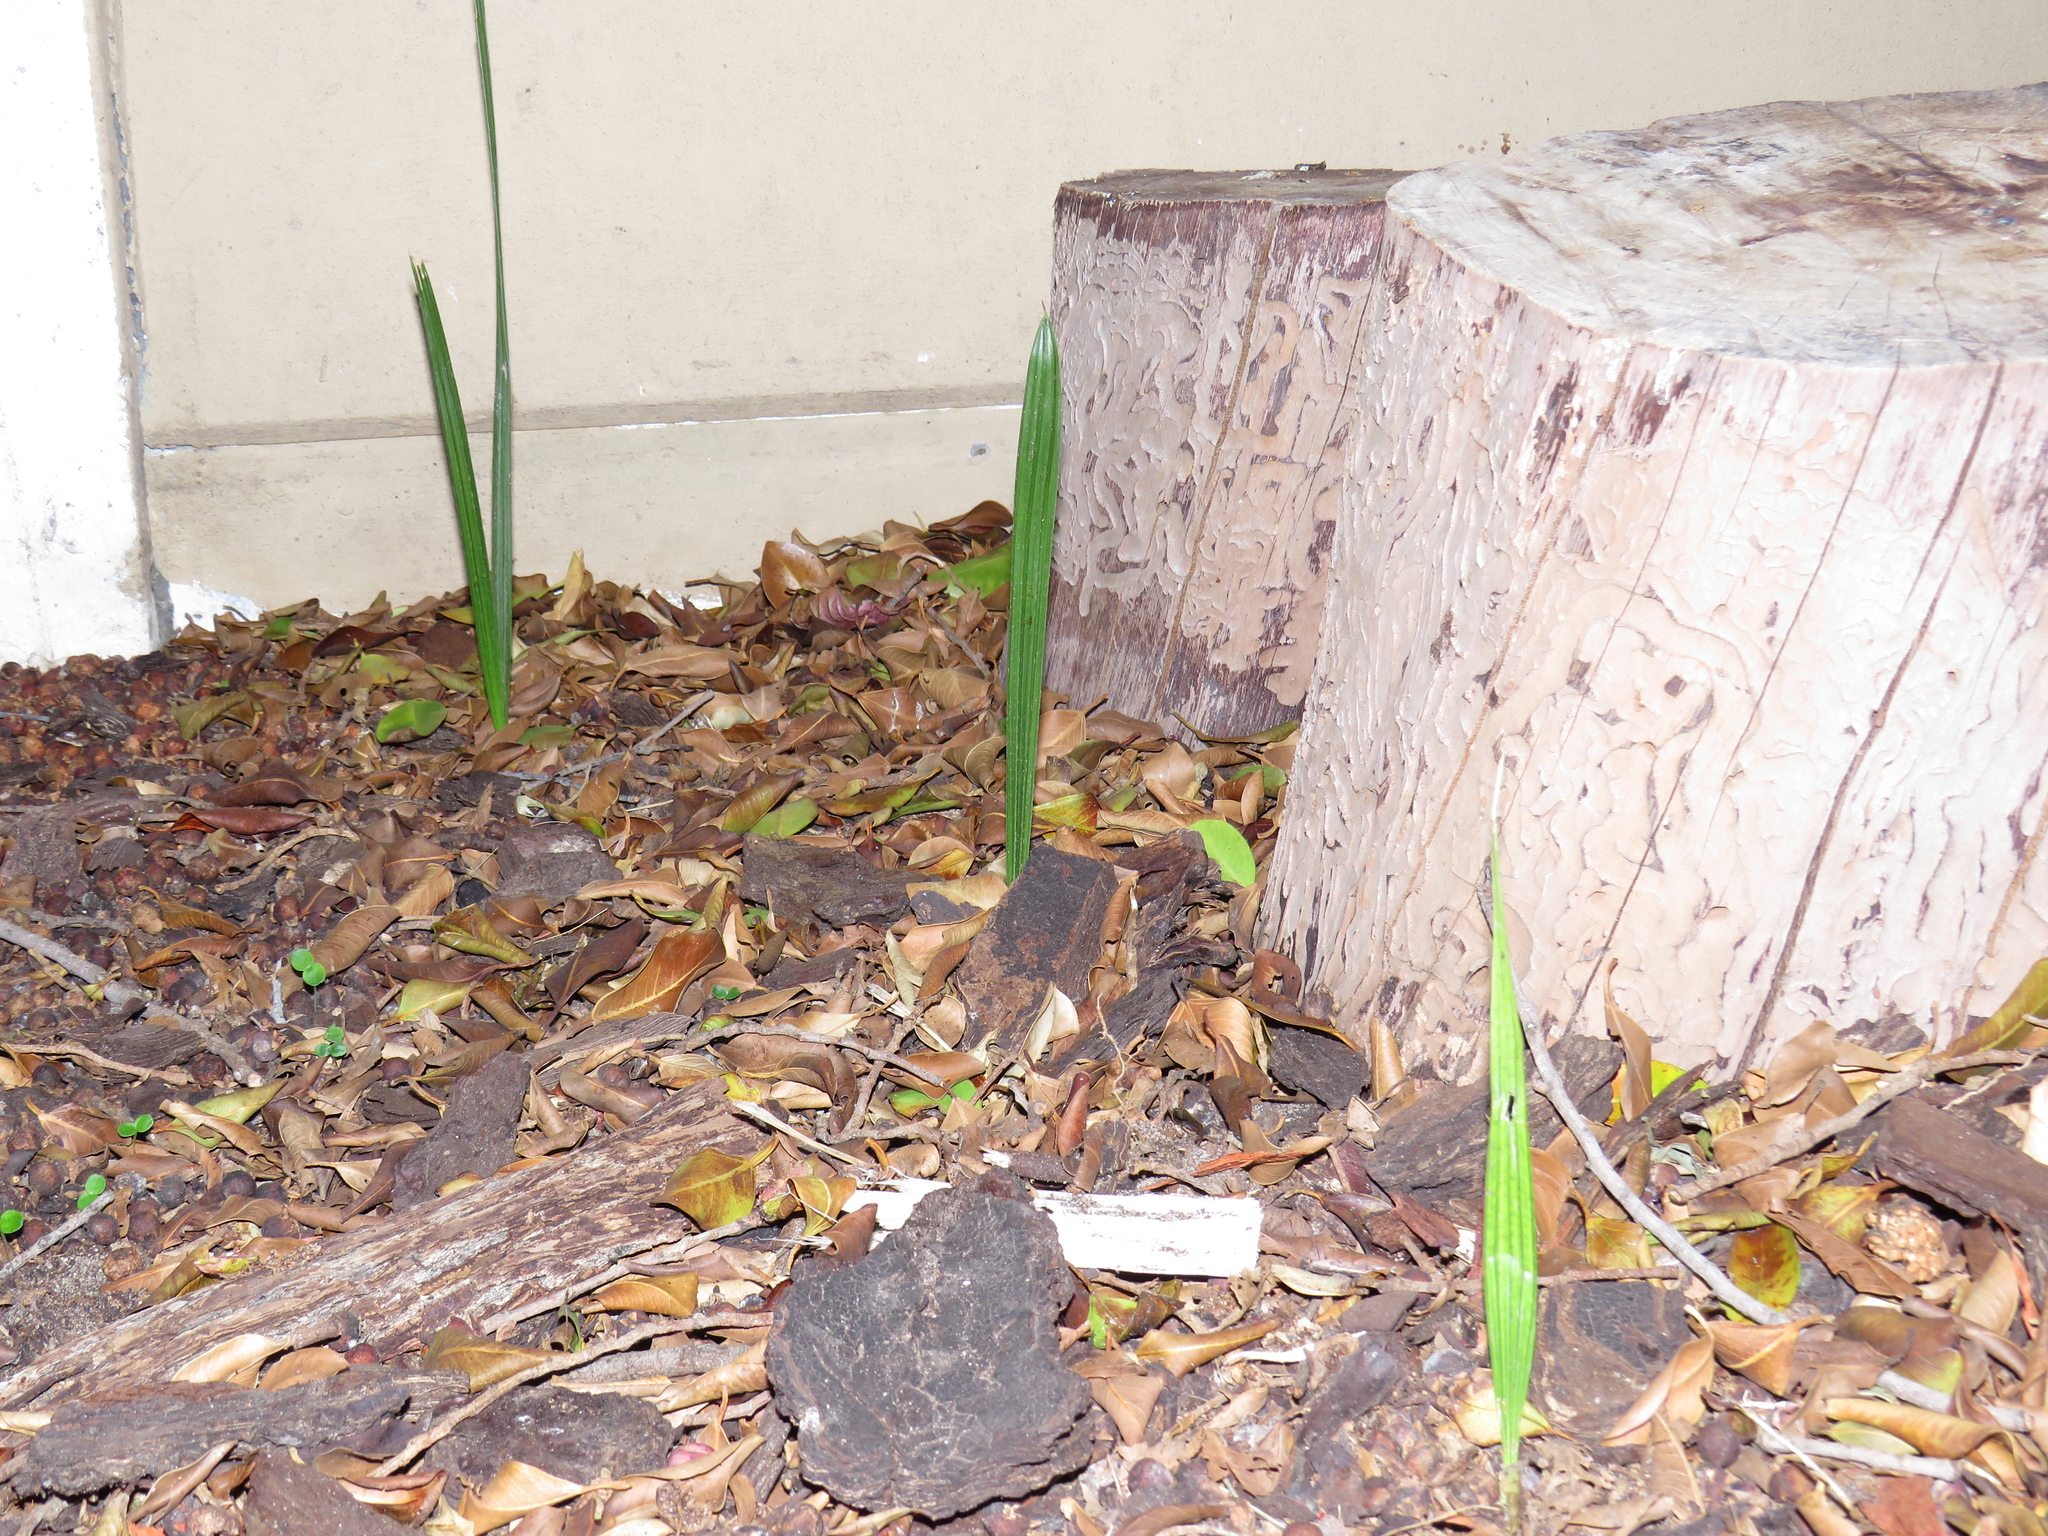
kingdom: Plantae
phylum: Tracheophyta
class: Liliopsida
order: Arecales
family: Arecaceae
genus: Phoenix
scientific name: Phoenix canariensis
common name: Canary island date palm
